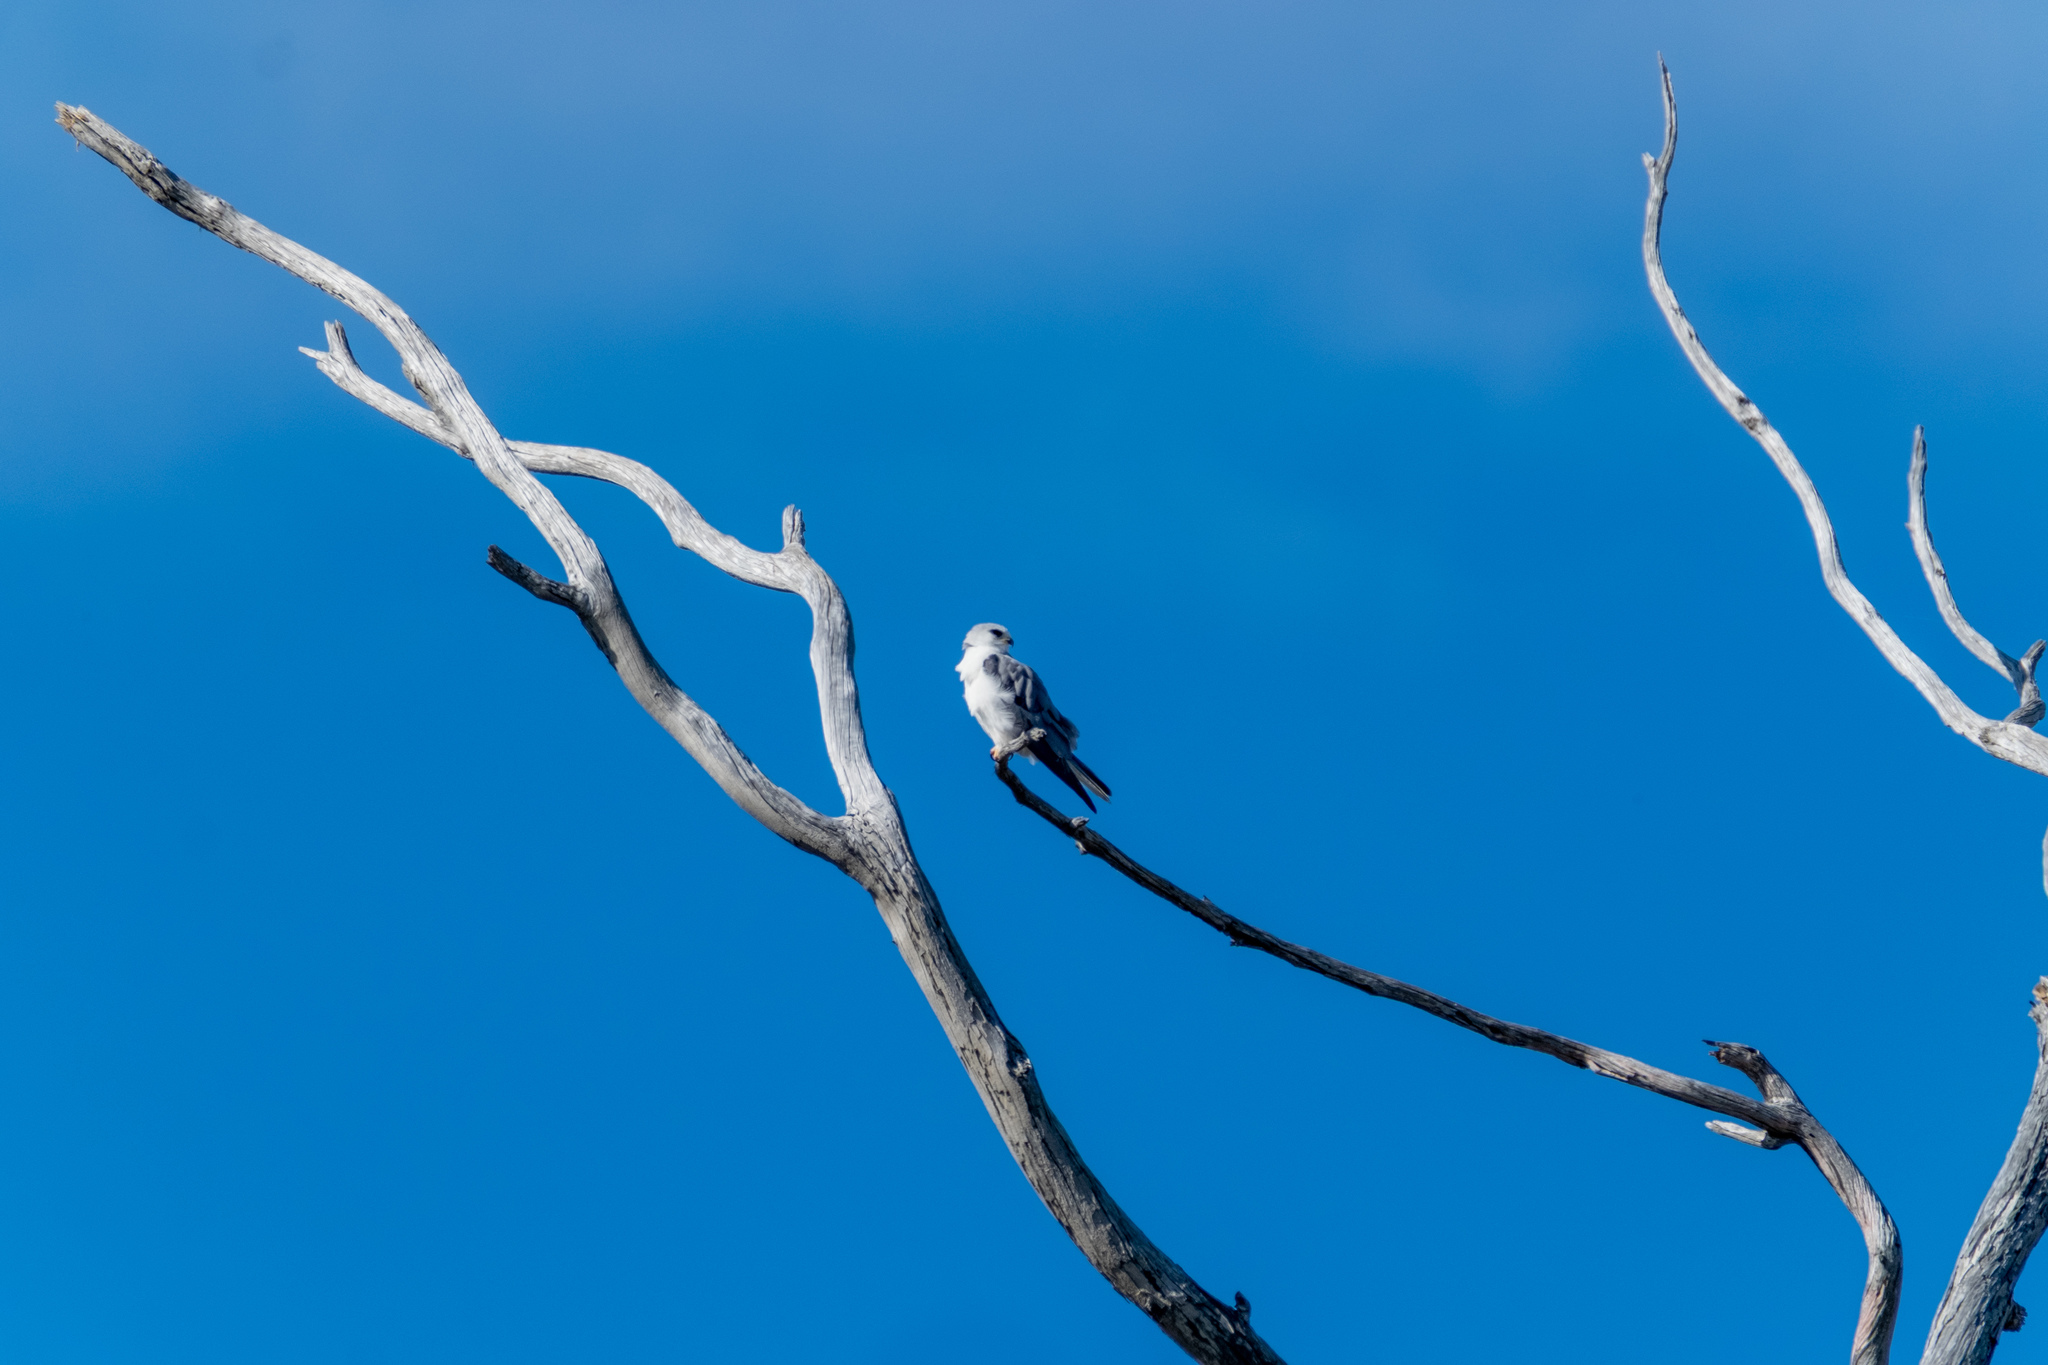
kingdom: Animalia
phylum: Chordata
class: Aves
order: Accipitriformes
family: Accipitridae
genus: Elanus
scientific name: Elanus leucurus
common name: White-tailed kite
